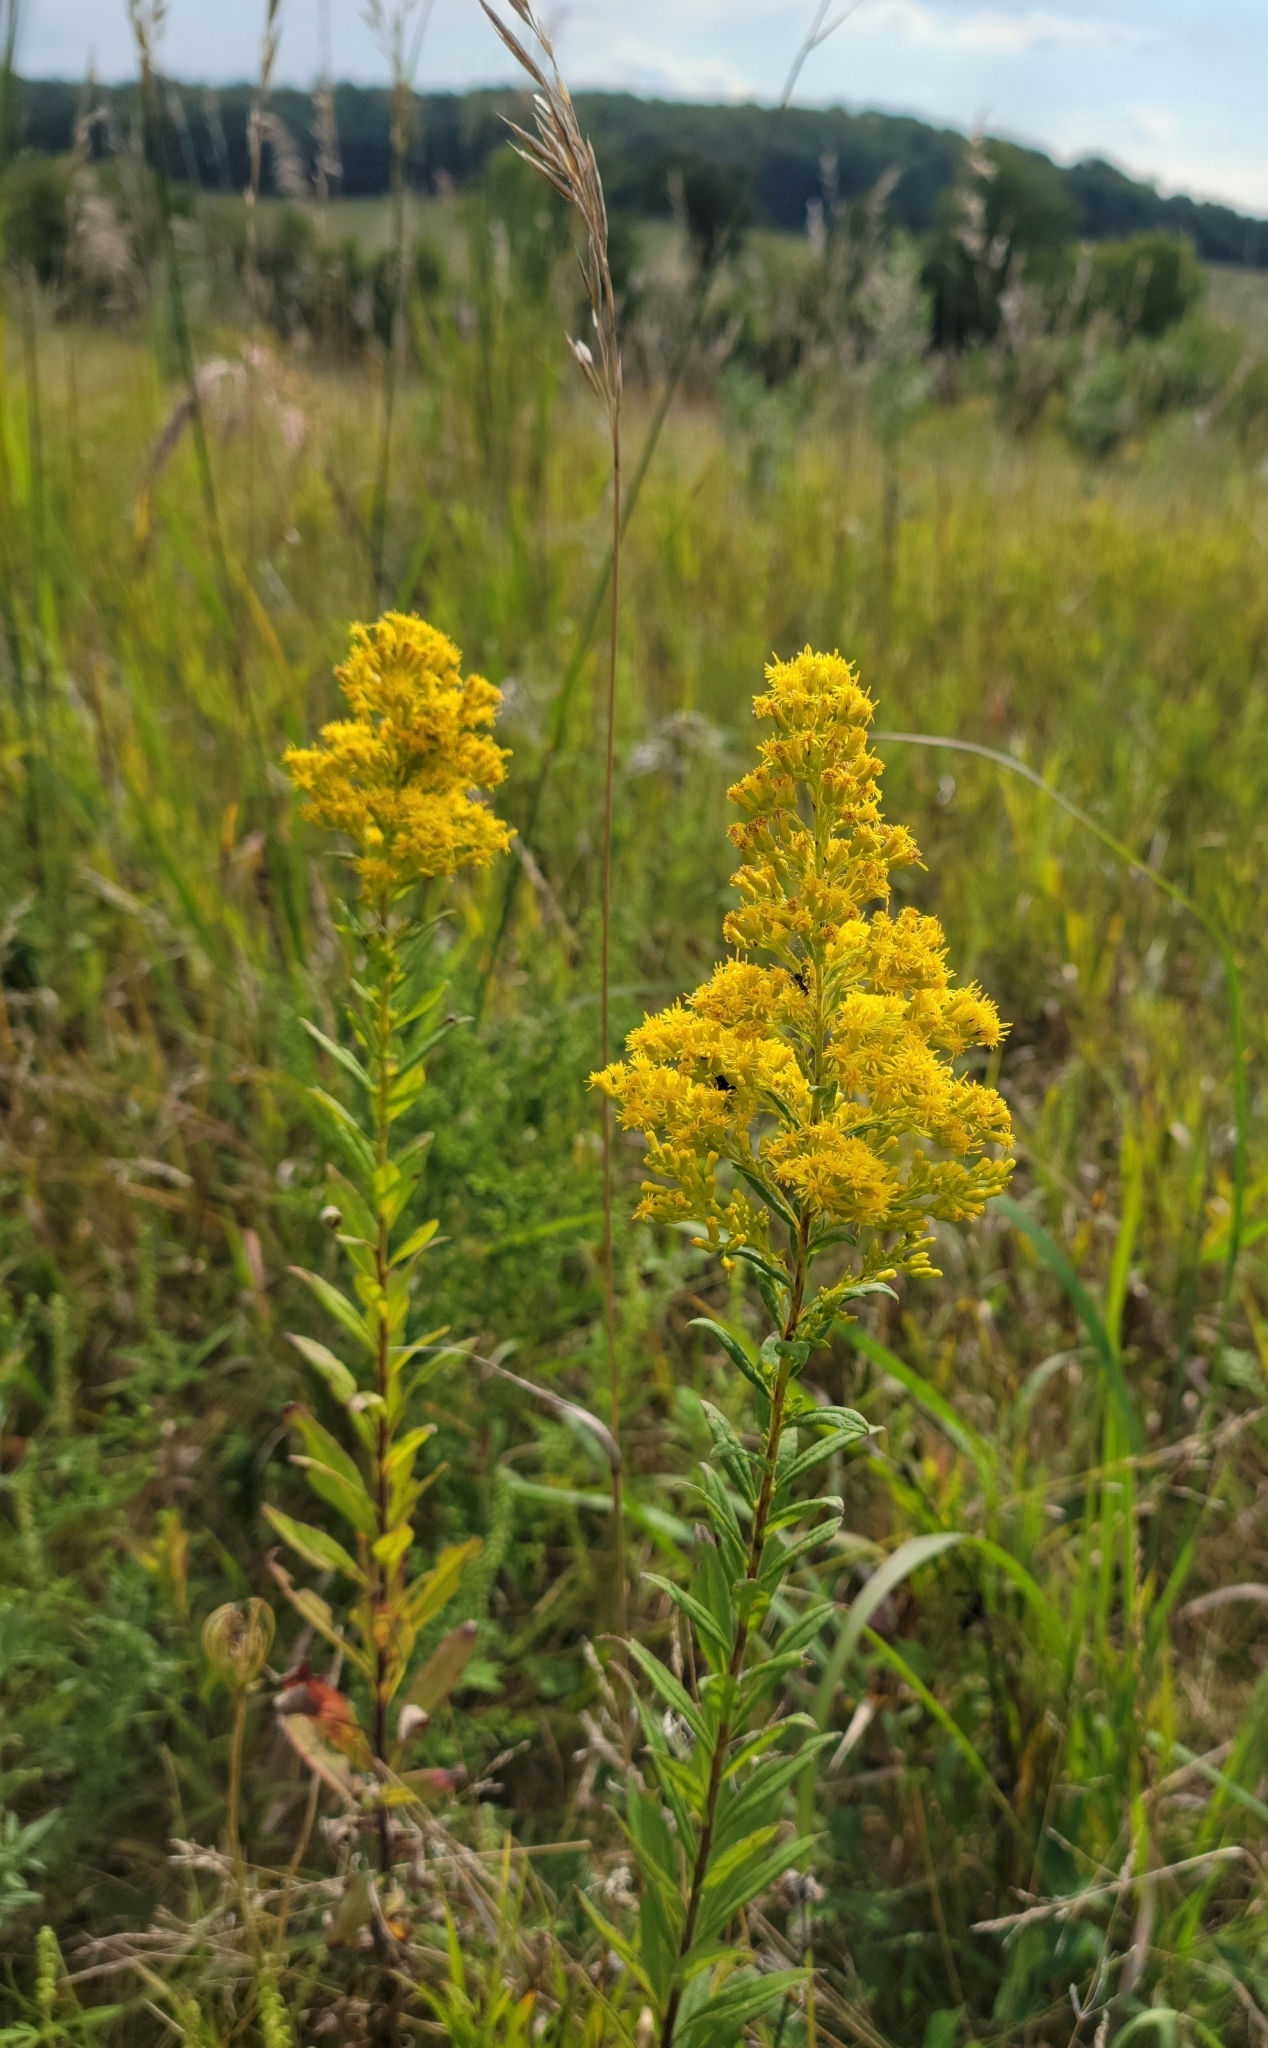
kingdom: Plantae
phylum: Tracheophyta
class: Magnoliopsida
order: Asterales
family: Asteraceae
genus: Solidago
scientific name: Solidago rigidiuscula
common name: Stiff-leaved showy goldenrod
